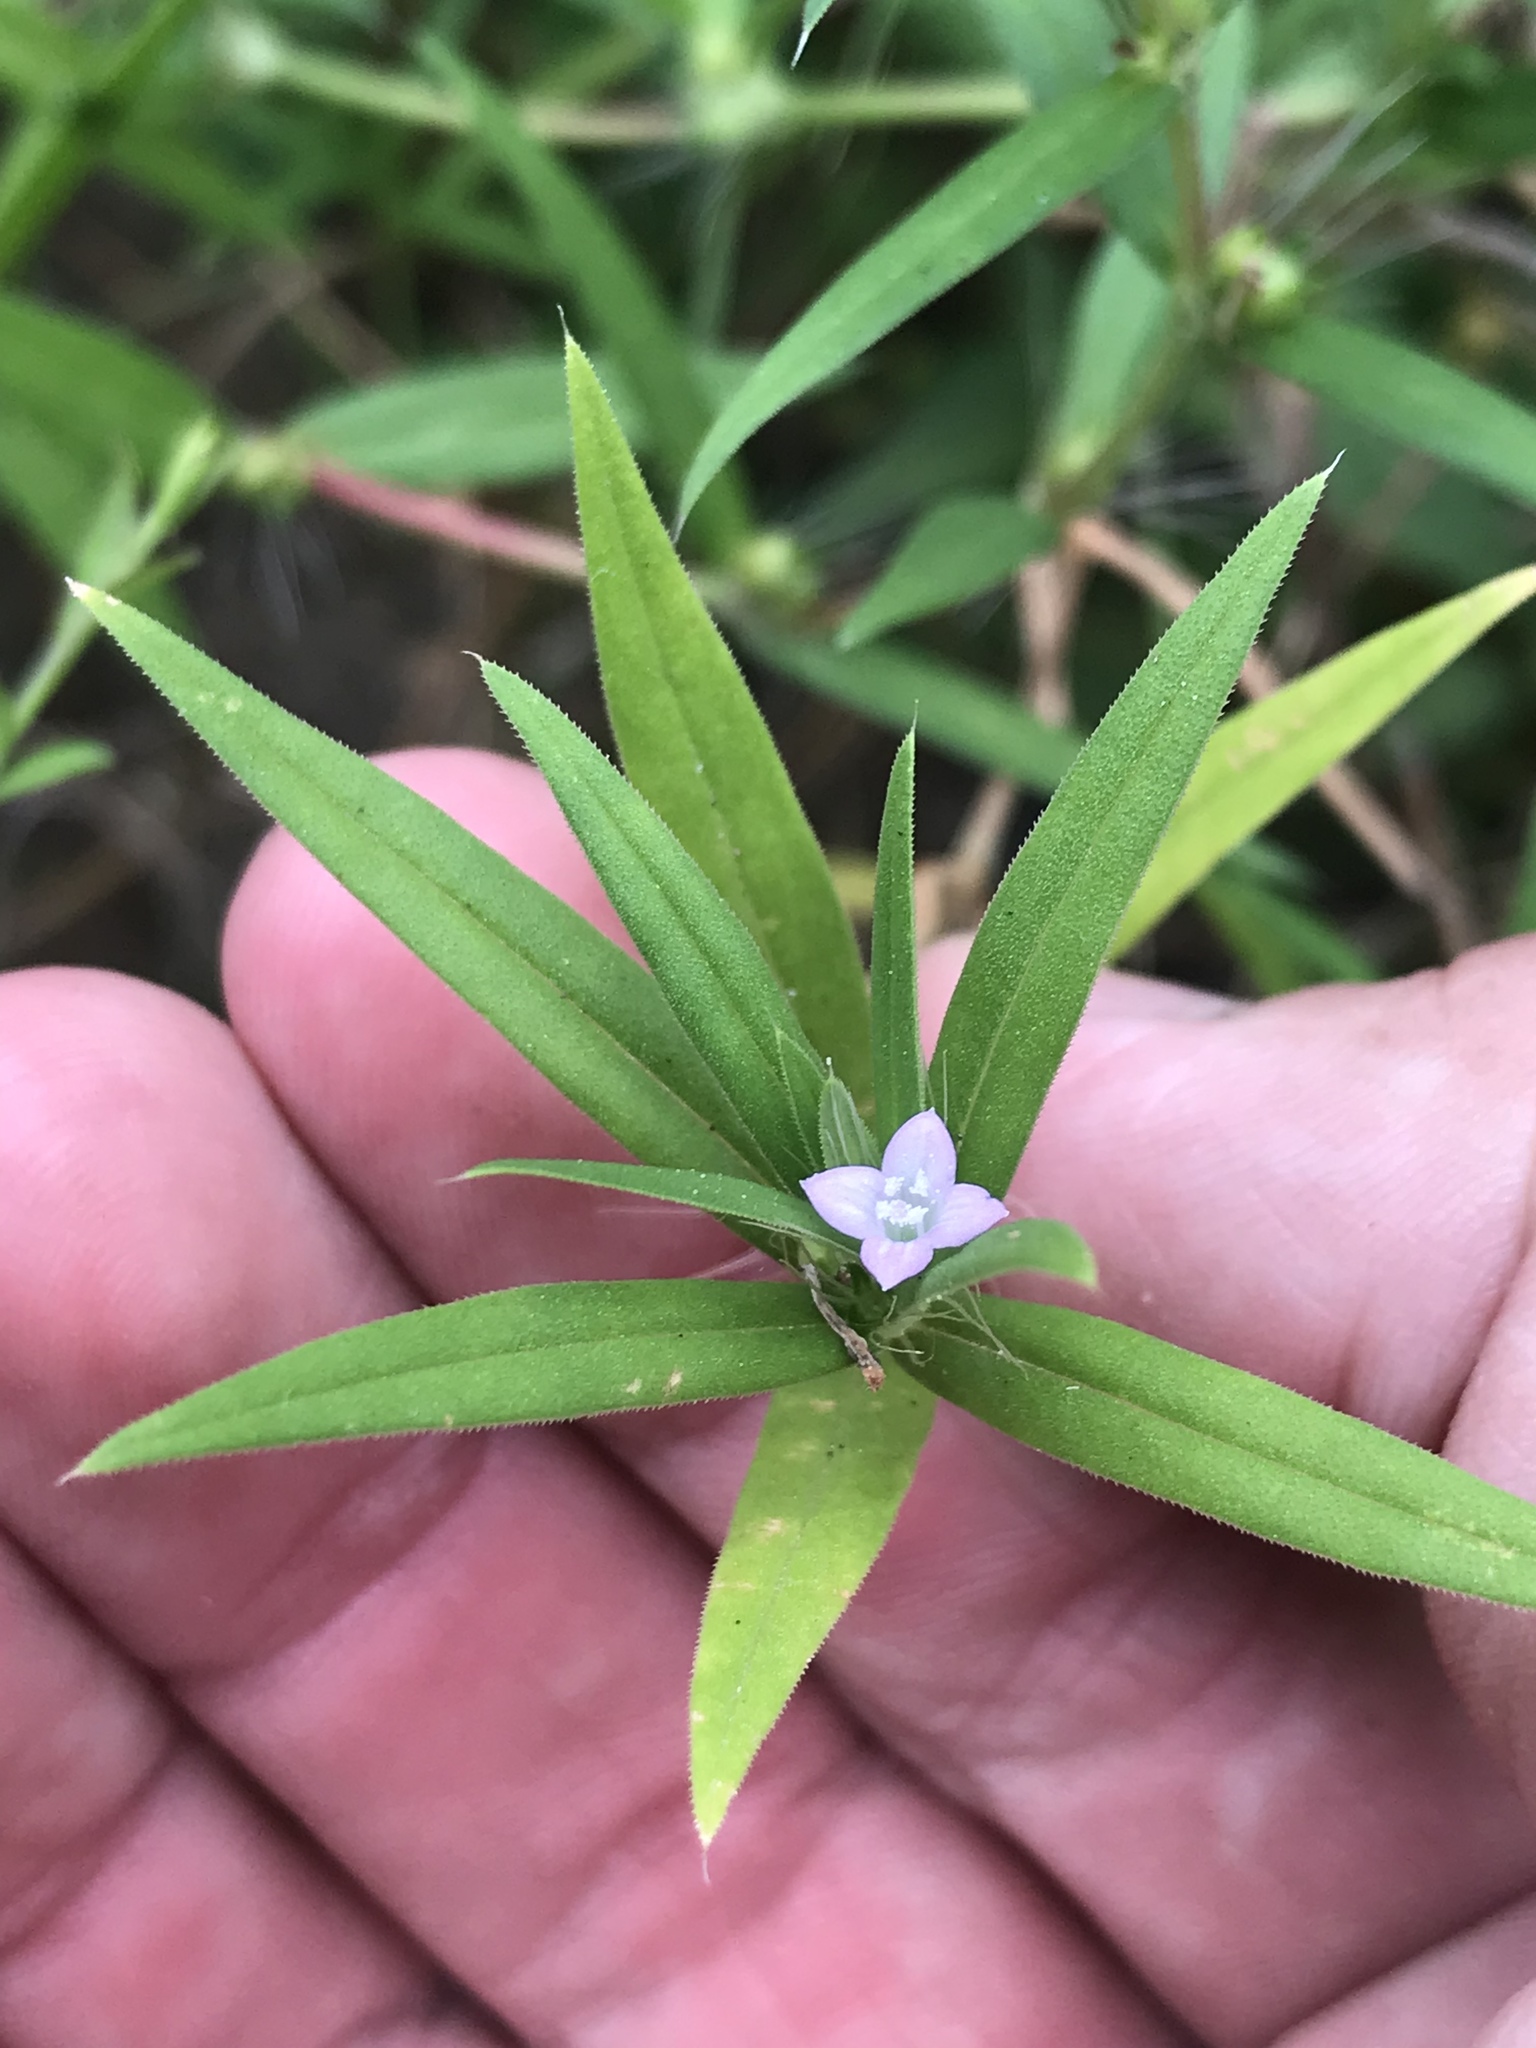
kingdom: Plantae
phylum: Tracheophyta
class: Magnoliopsida
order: Gentianales
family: Rubiaceae
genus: Hexasepalum
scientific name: Hexasepalum teres
